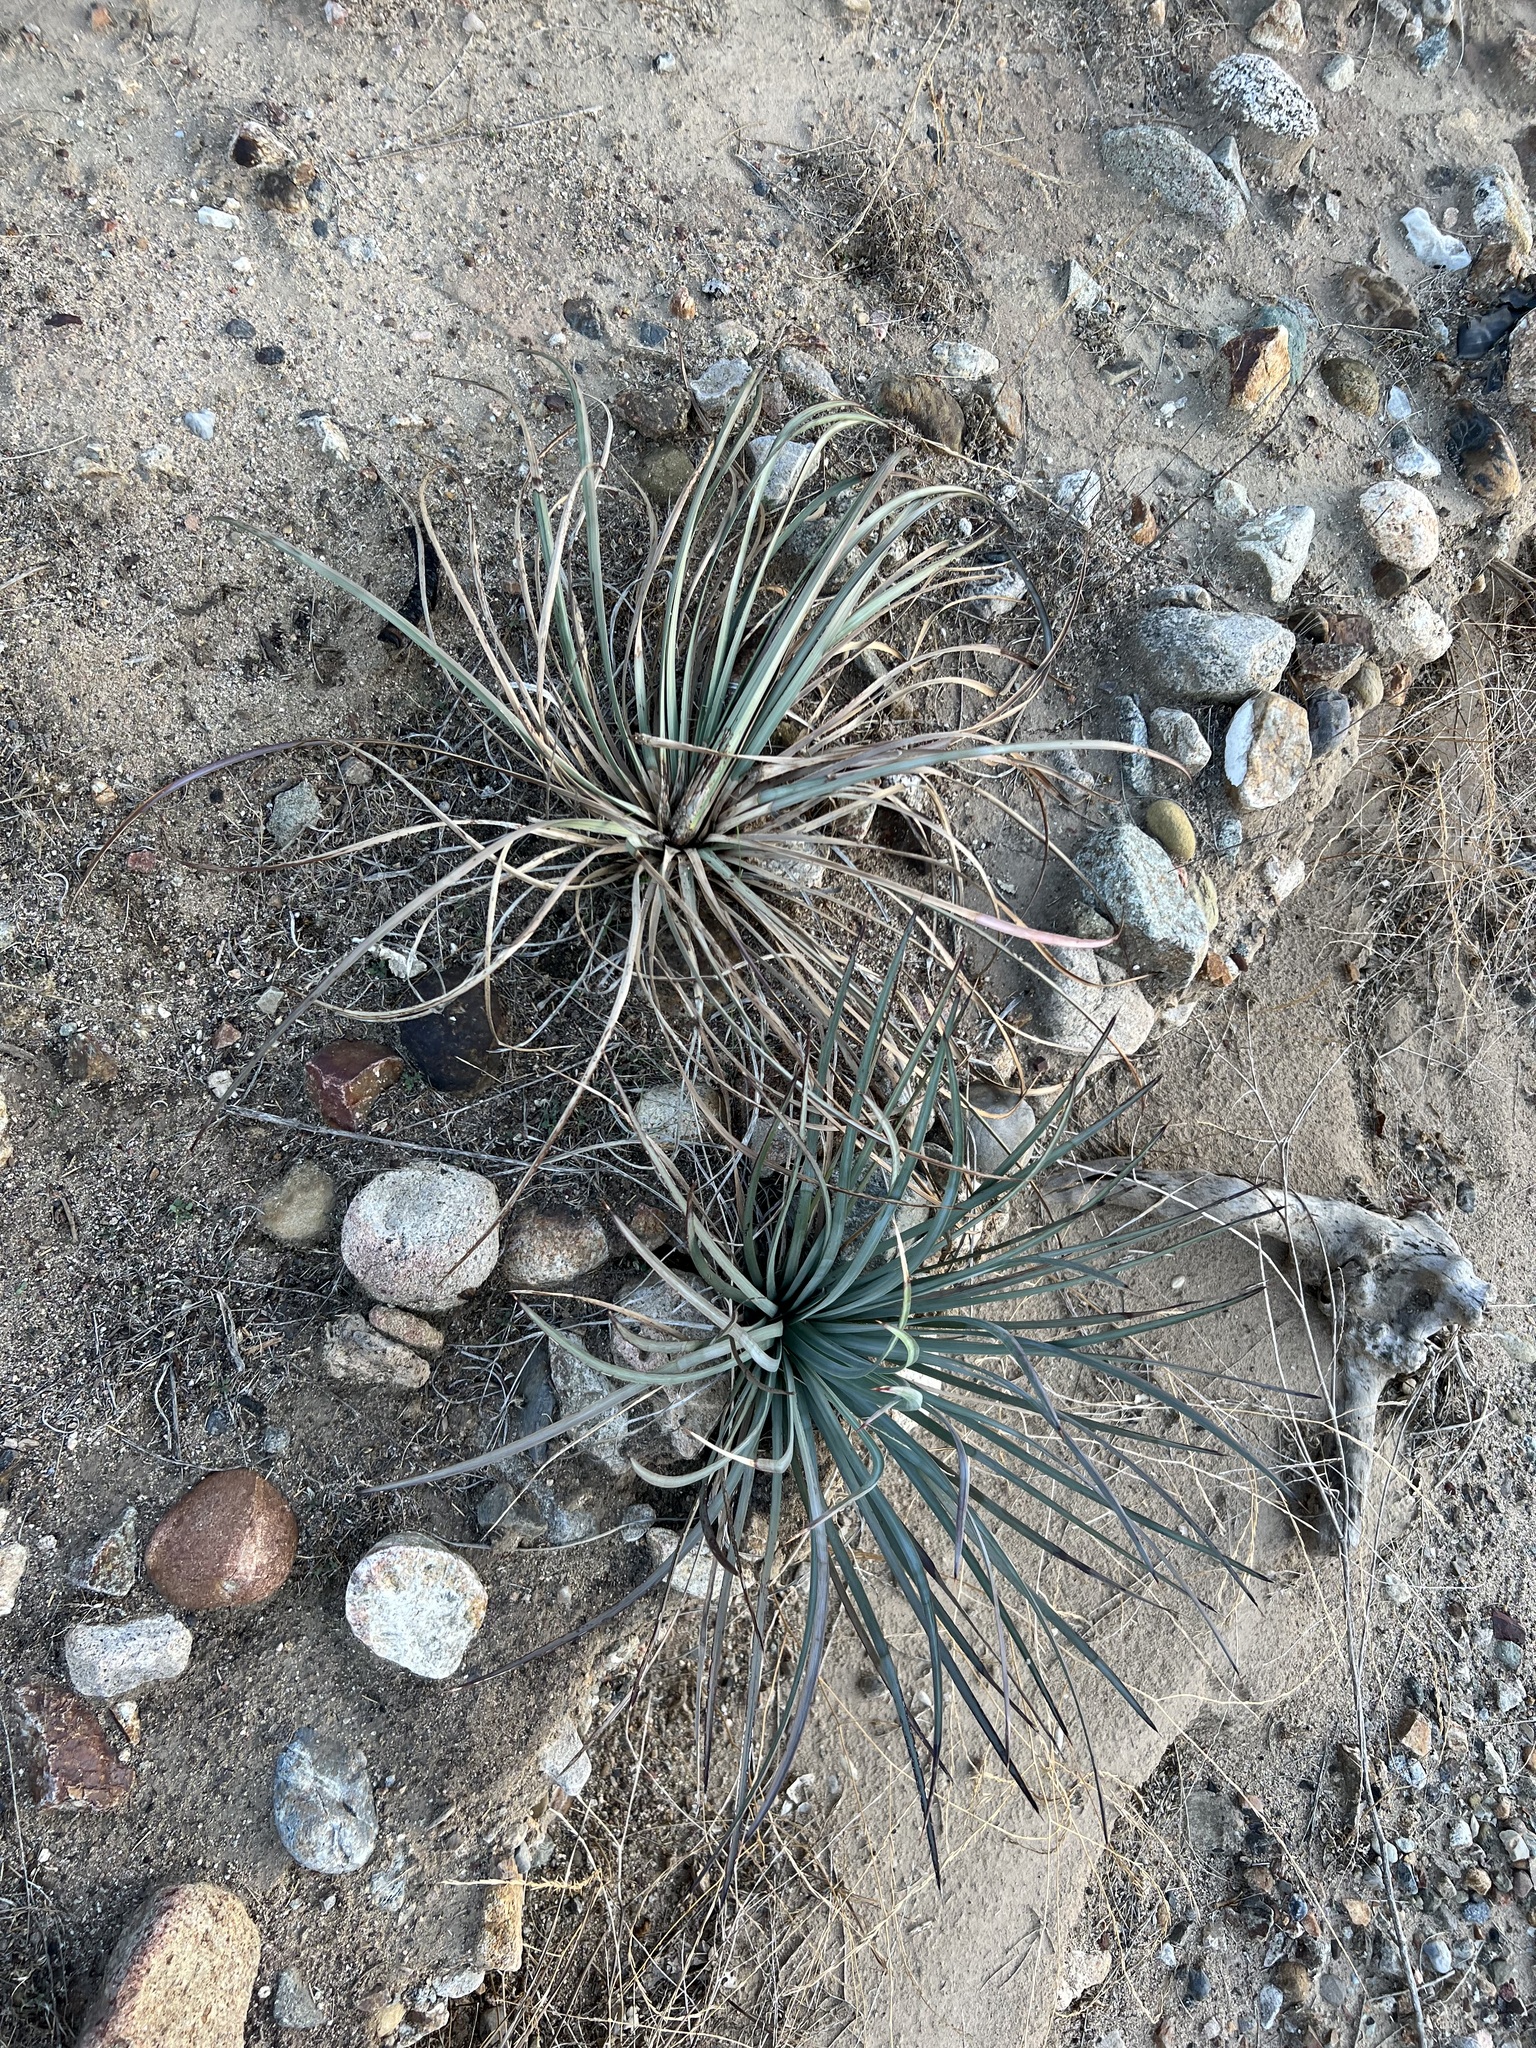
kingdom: Plantae
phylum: Tracheophyta
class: Liliopsida
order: Asparagales
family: Asparagaceae
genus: Hesperoyucca
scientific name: Hesperoyucca whipplei
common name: Our lord's-candle
